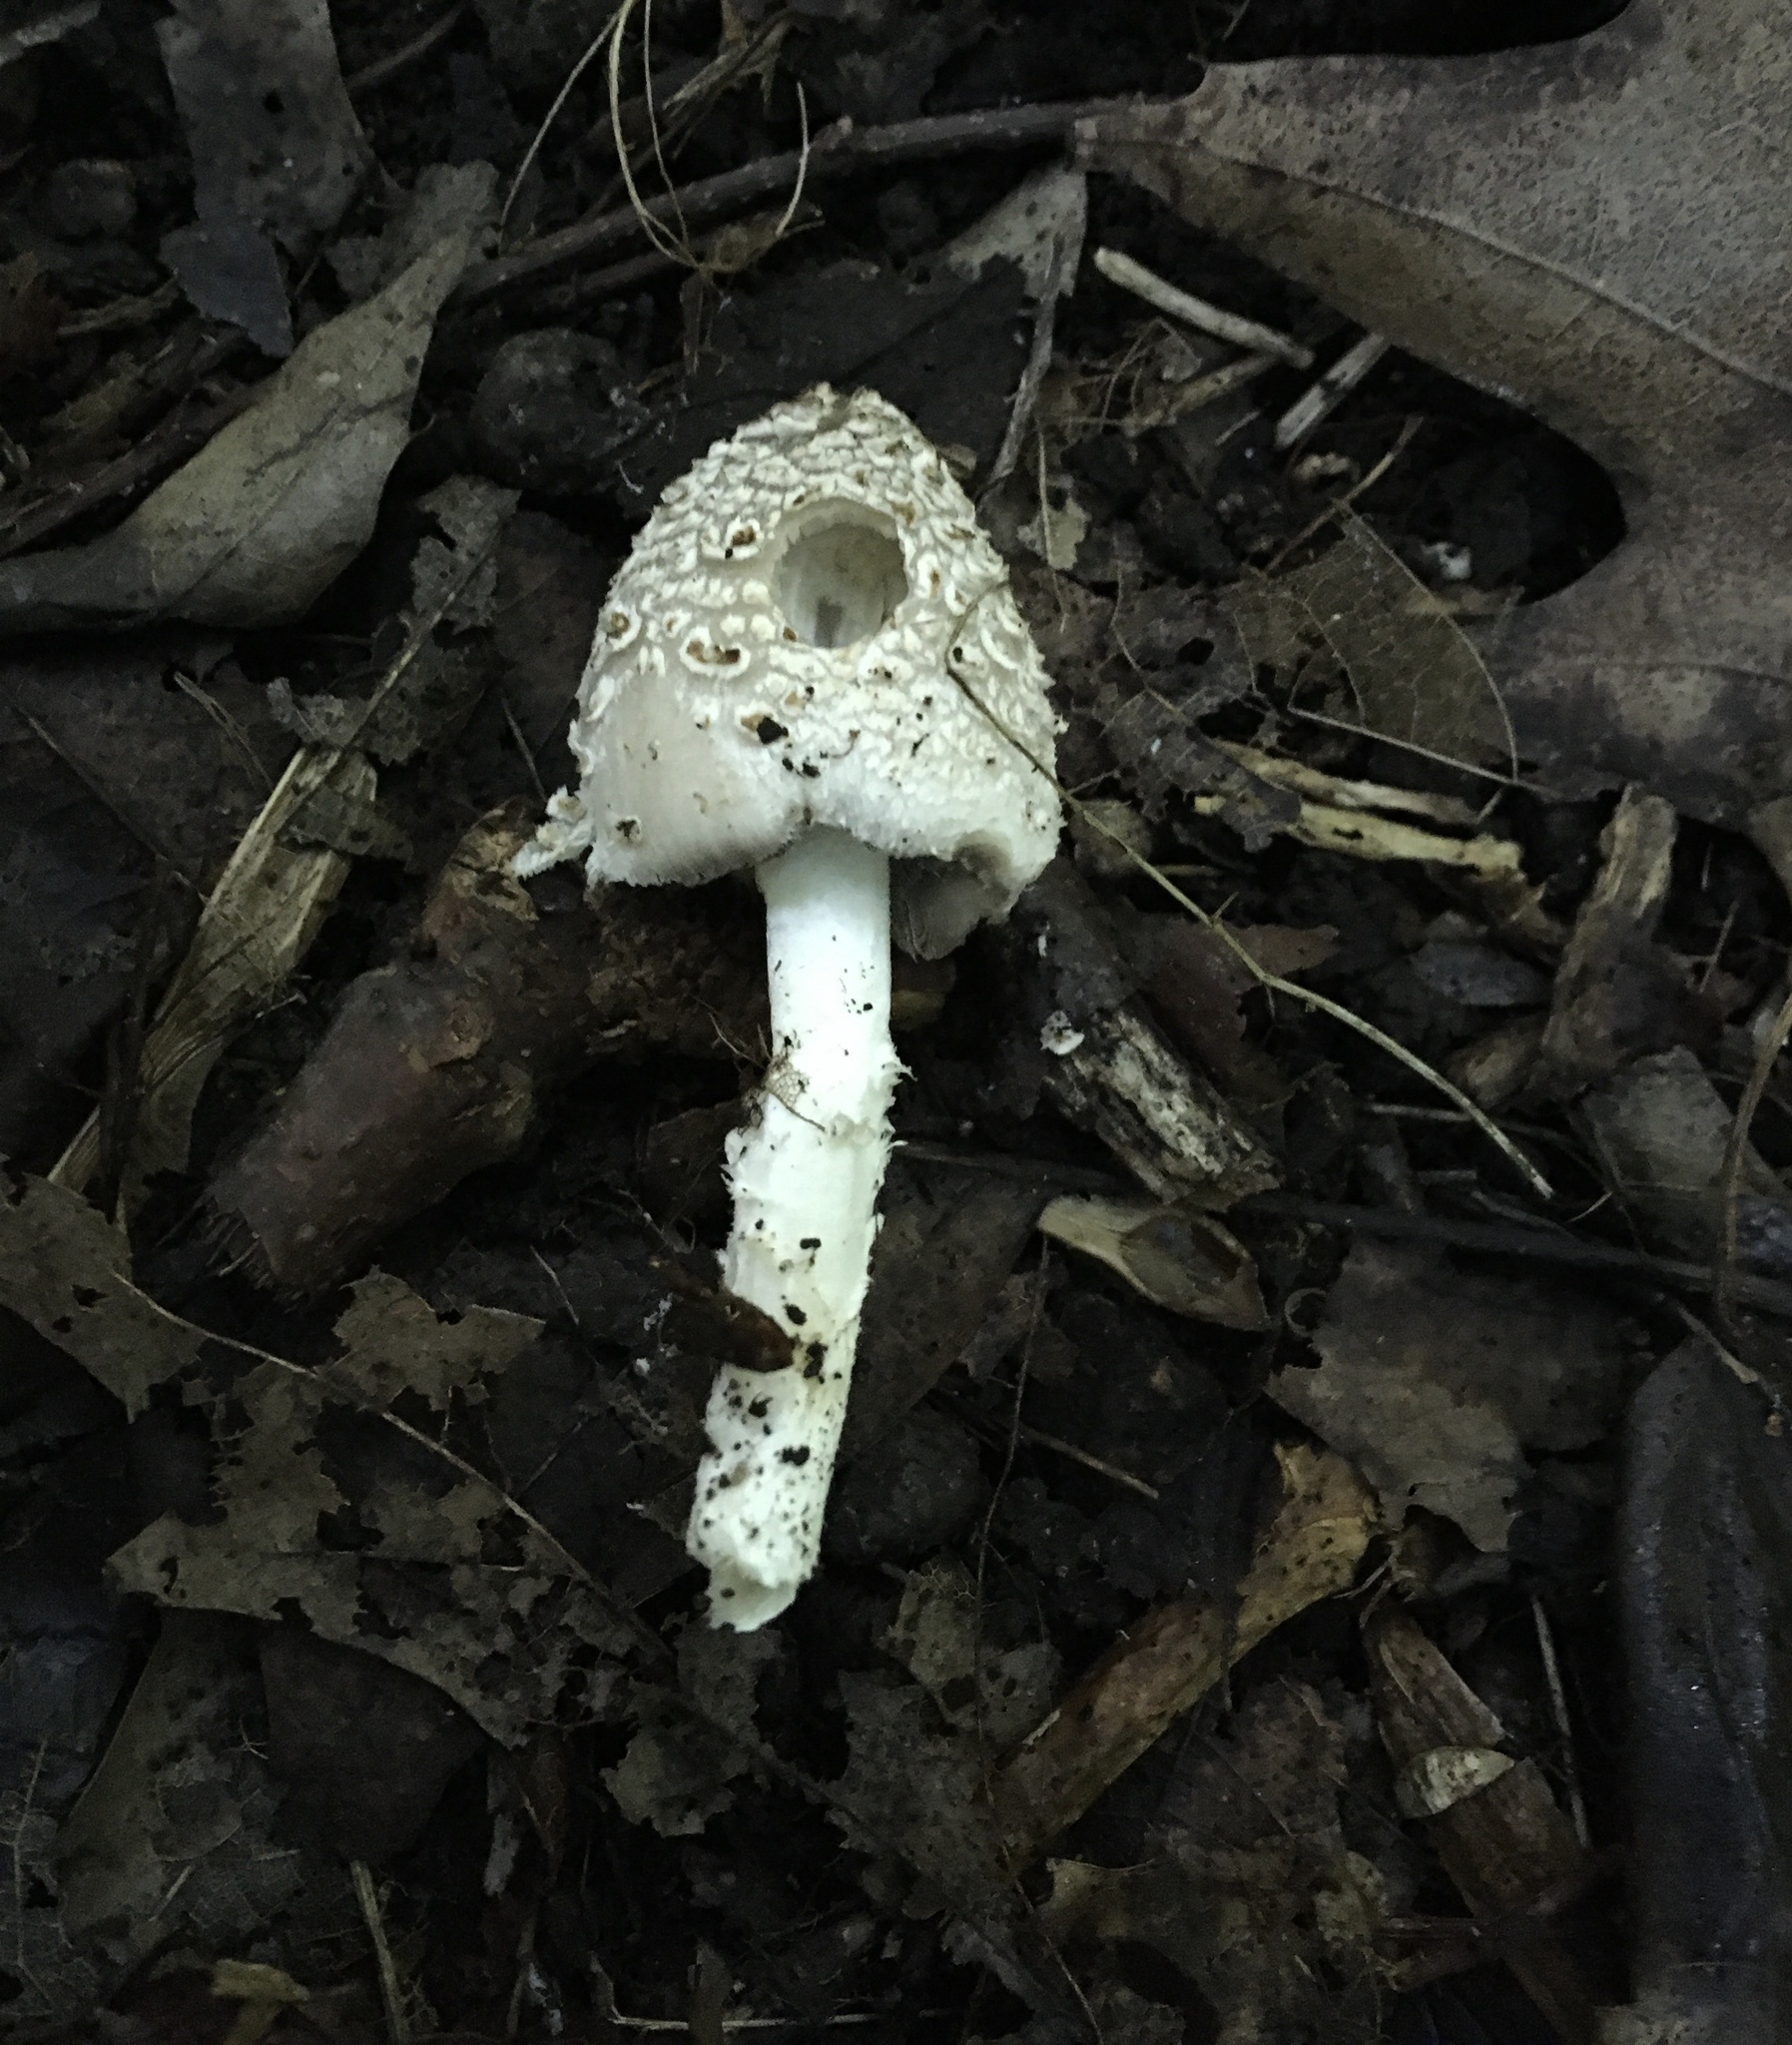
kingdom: Fungi
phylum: Basidiomycota
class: Agaricomycetes
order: Agaricales
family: Psathyrellaceae
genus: Coprinopsis
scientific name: Coprinopsis variegata
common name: Scaly ink cap
